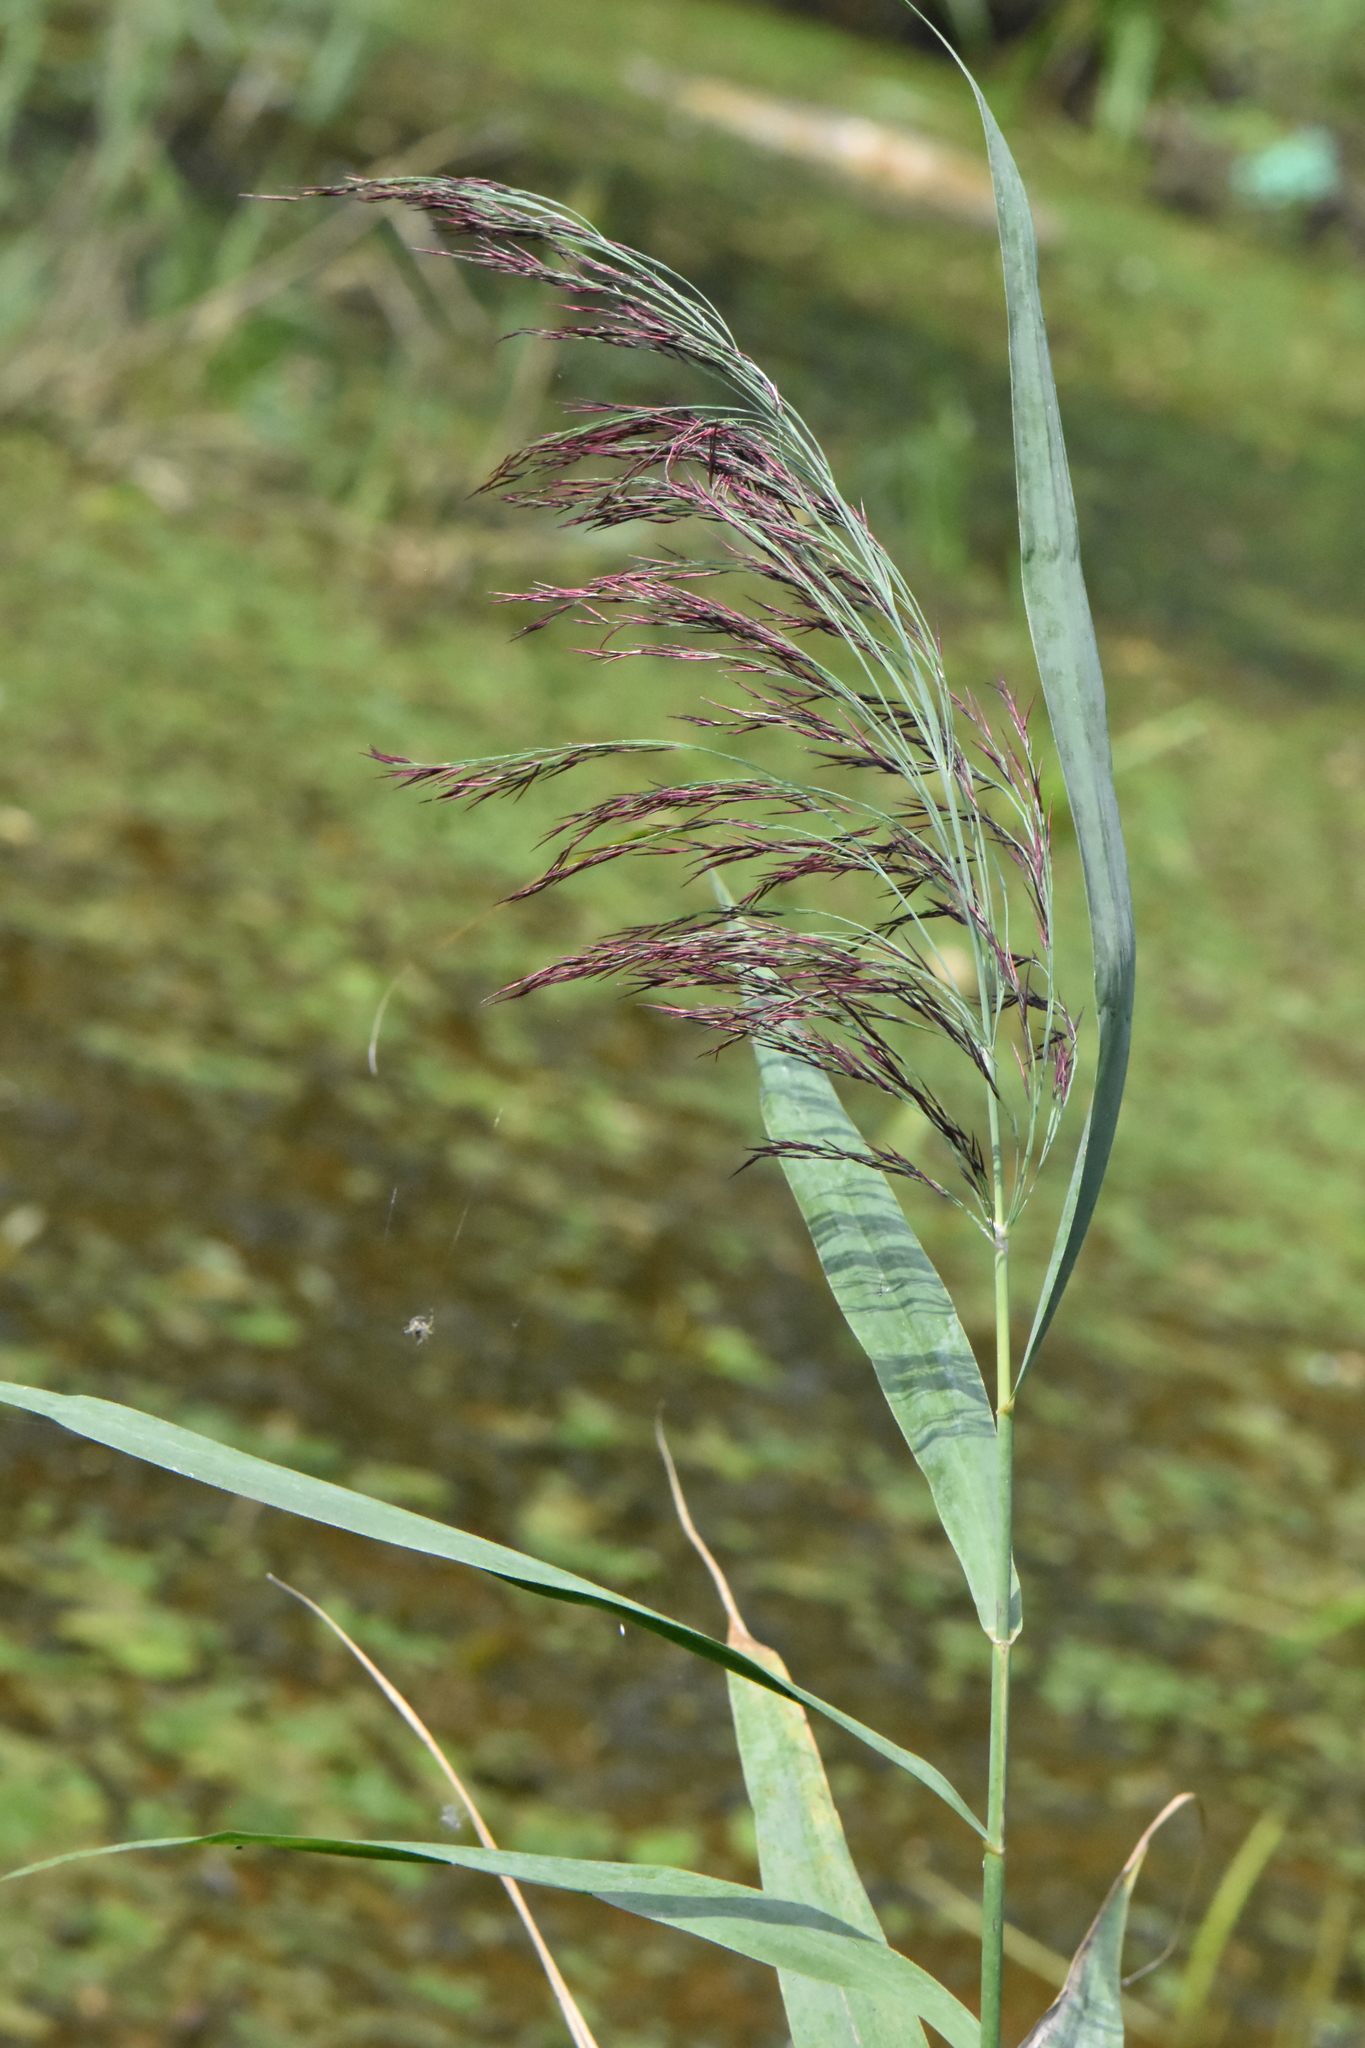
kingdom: Plantae
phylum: Tracheophyta
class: Liliopsida
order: Poales
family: Poaceae
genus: Phragmites
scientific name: Phragmites australis
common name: Common reed
